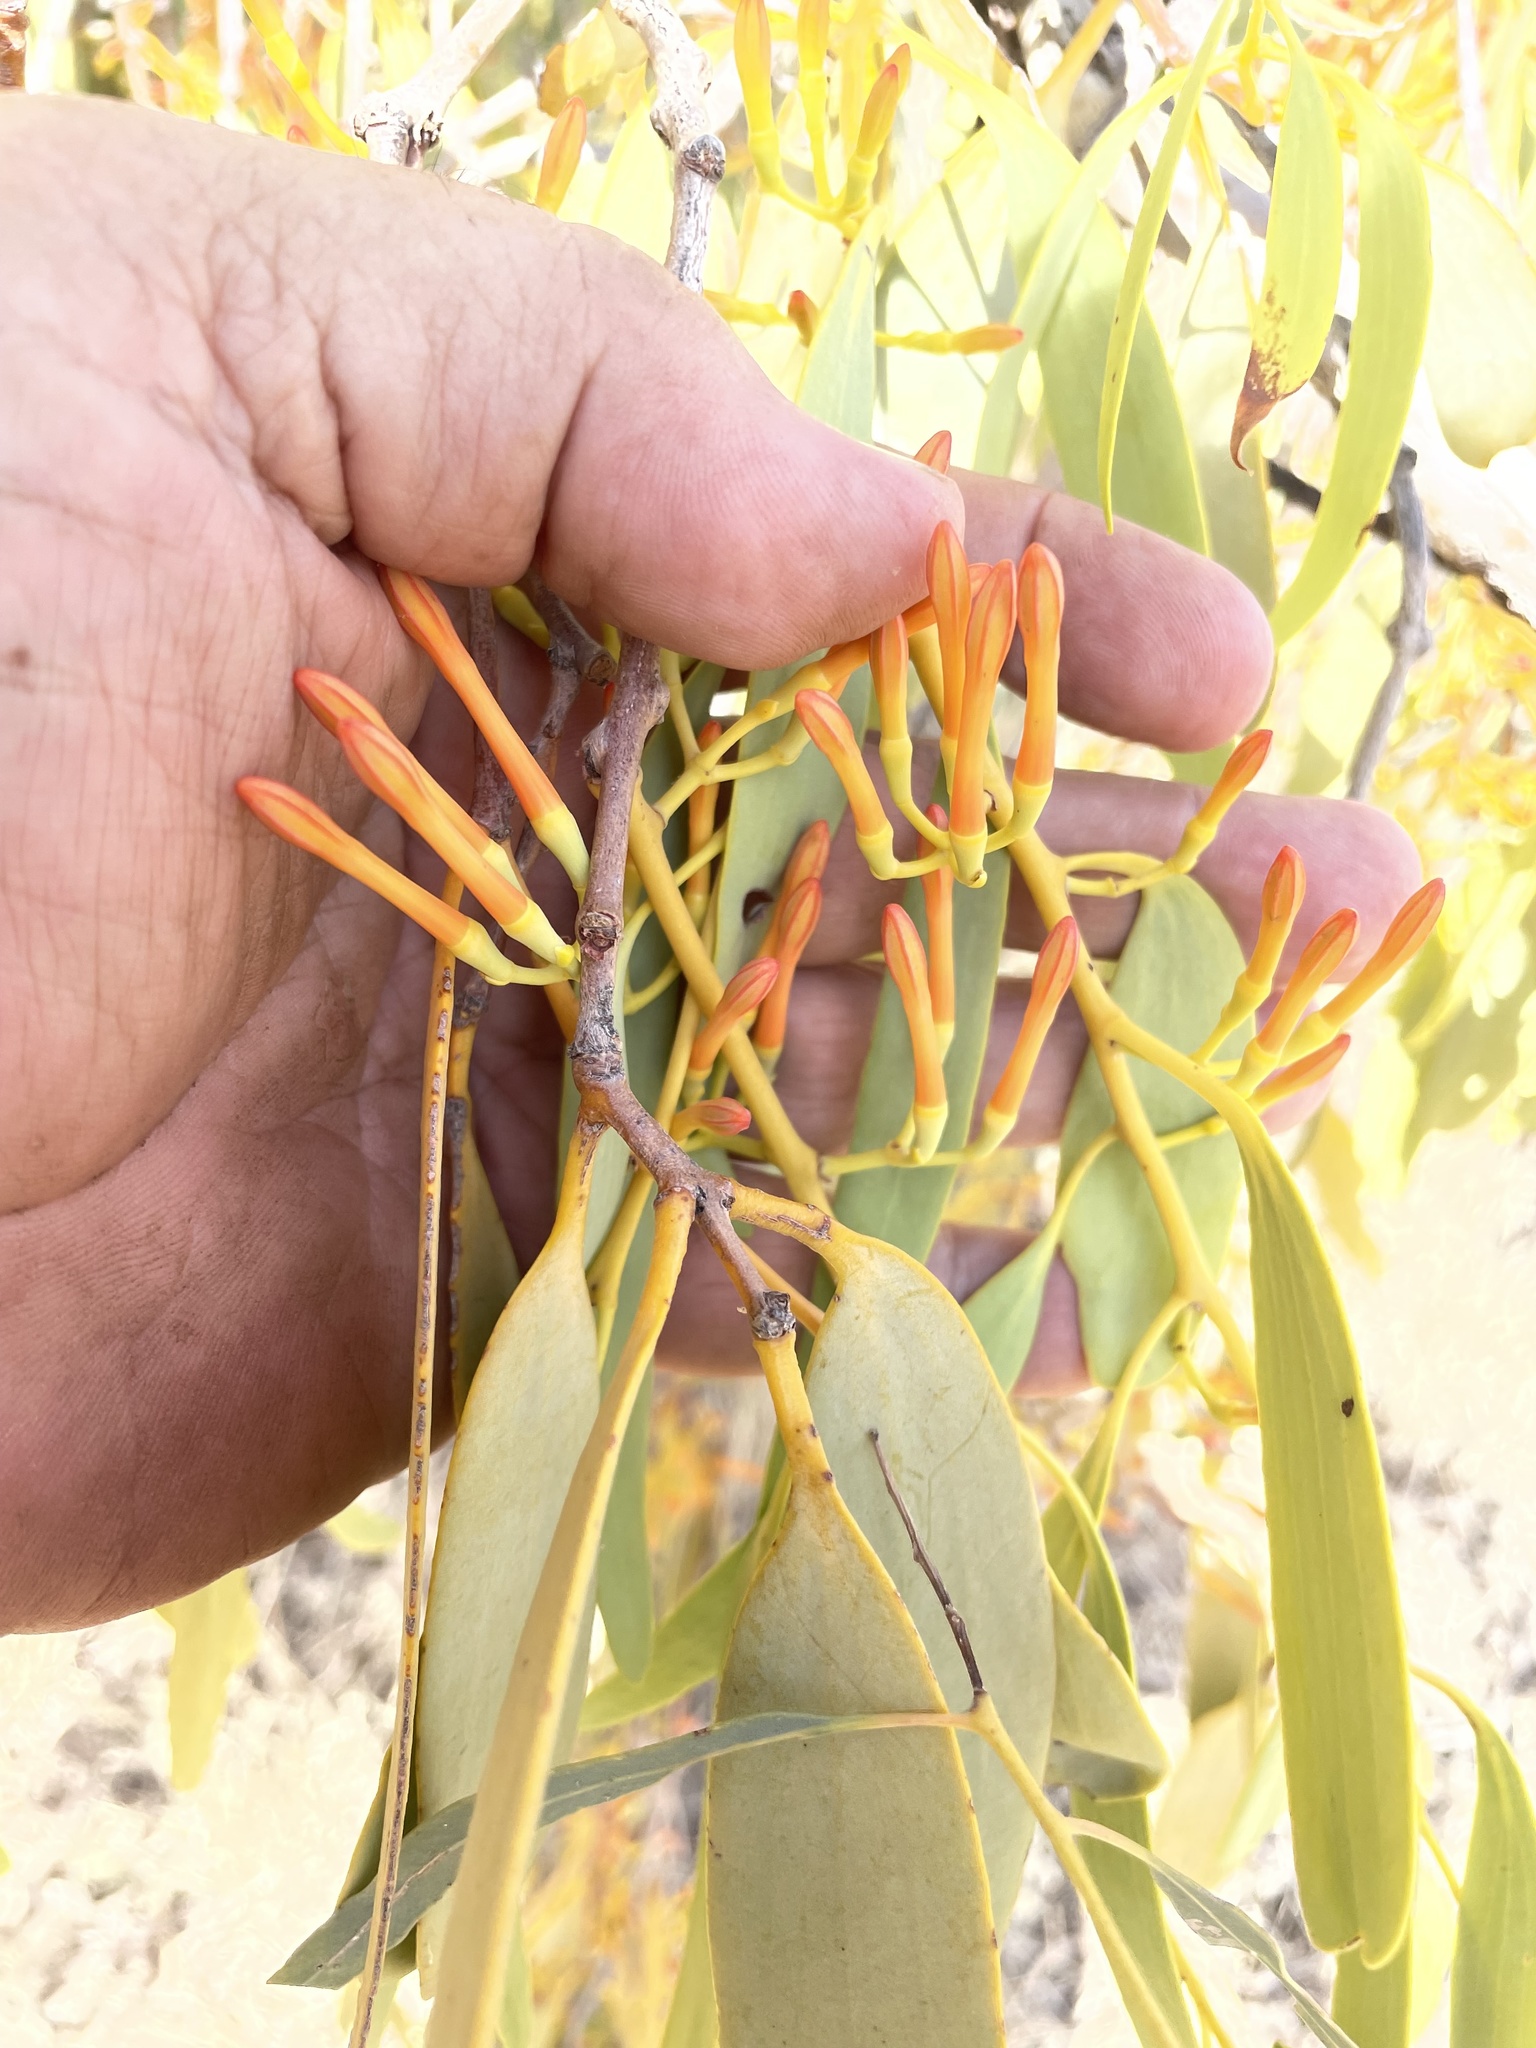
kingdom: Plantae
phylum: Tracheophyta
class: Magnoliopsida
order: Santalales
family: Loranthaceae
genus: Amyema
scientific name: Amyema sanguinea
